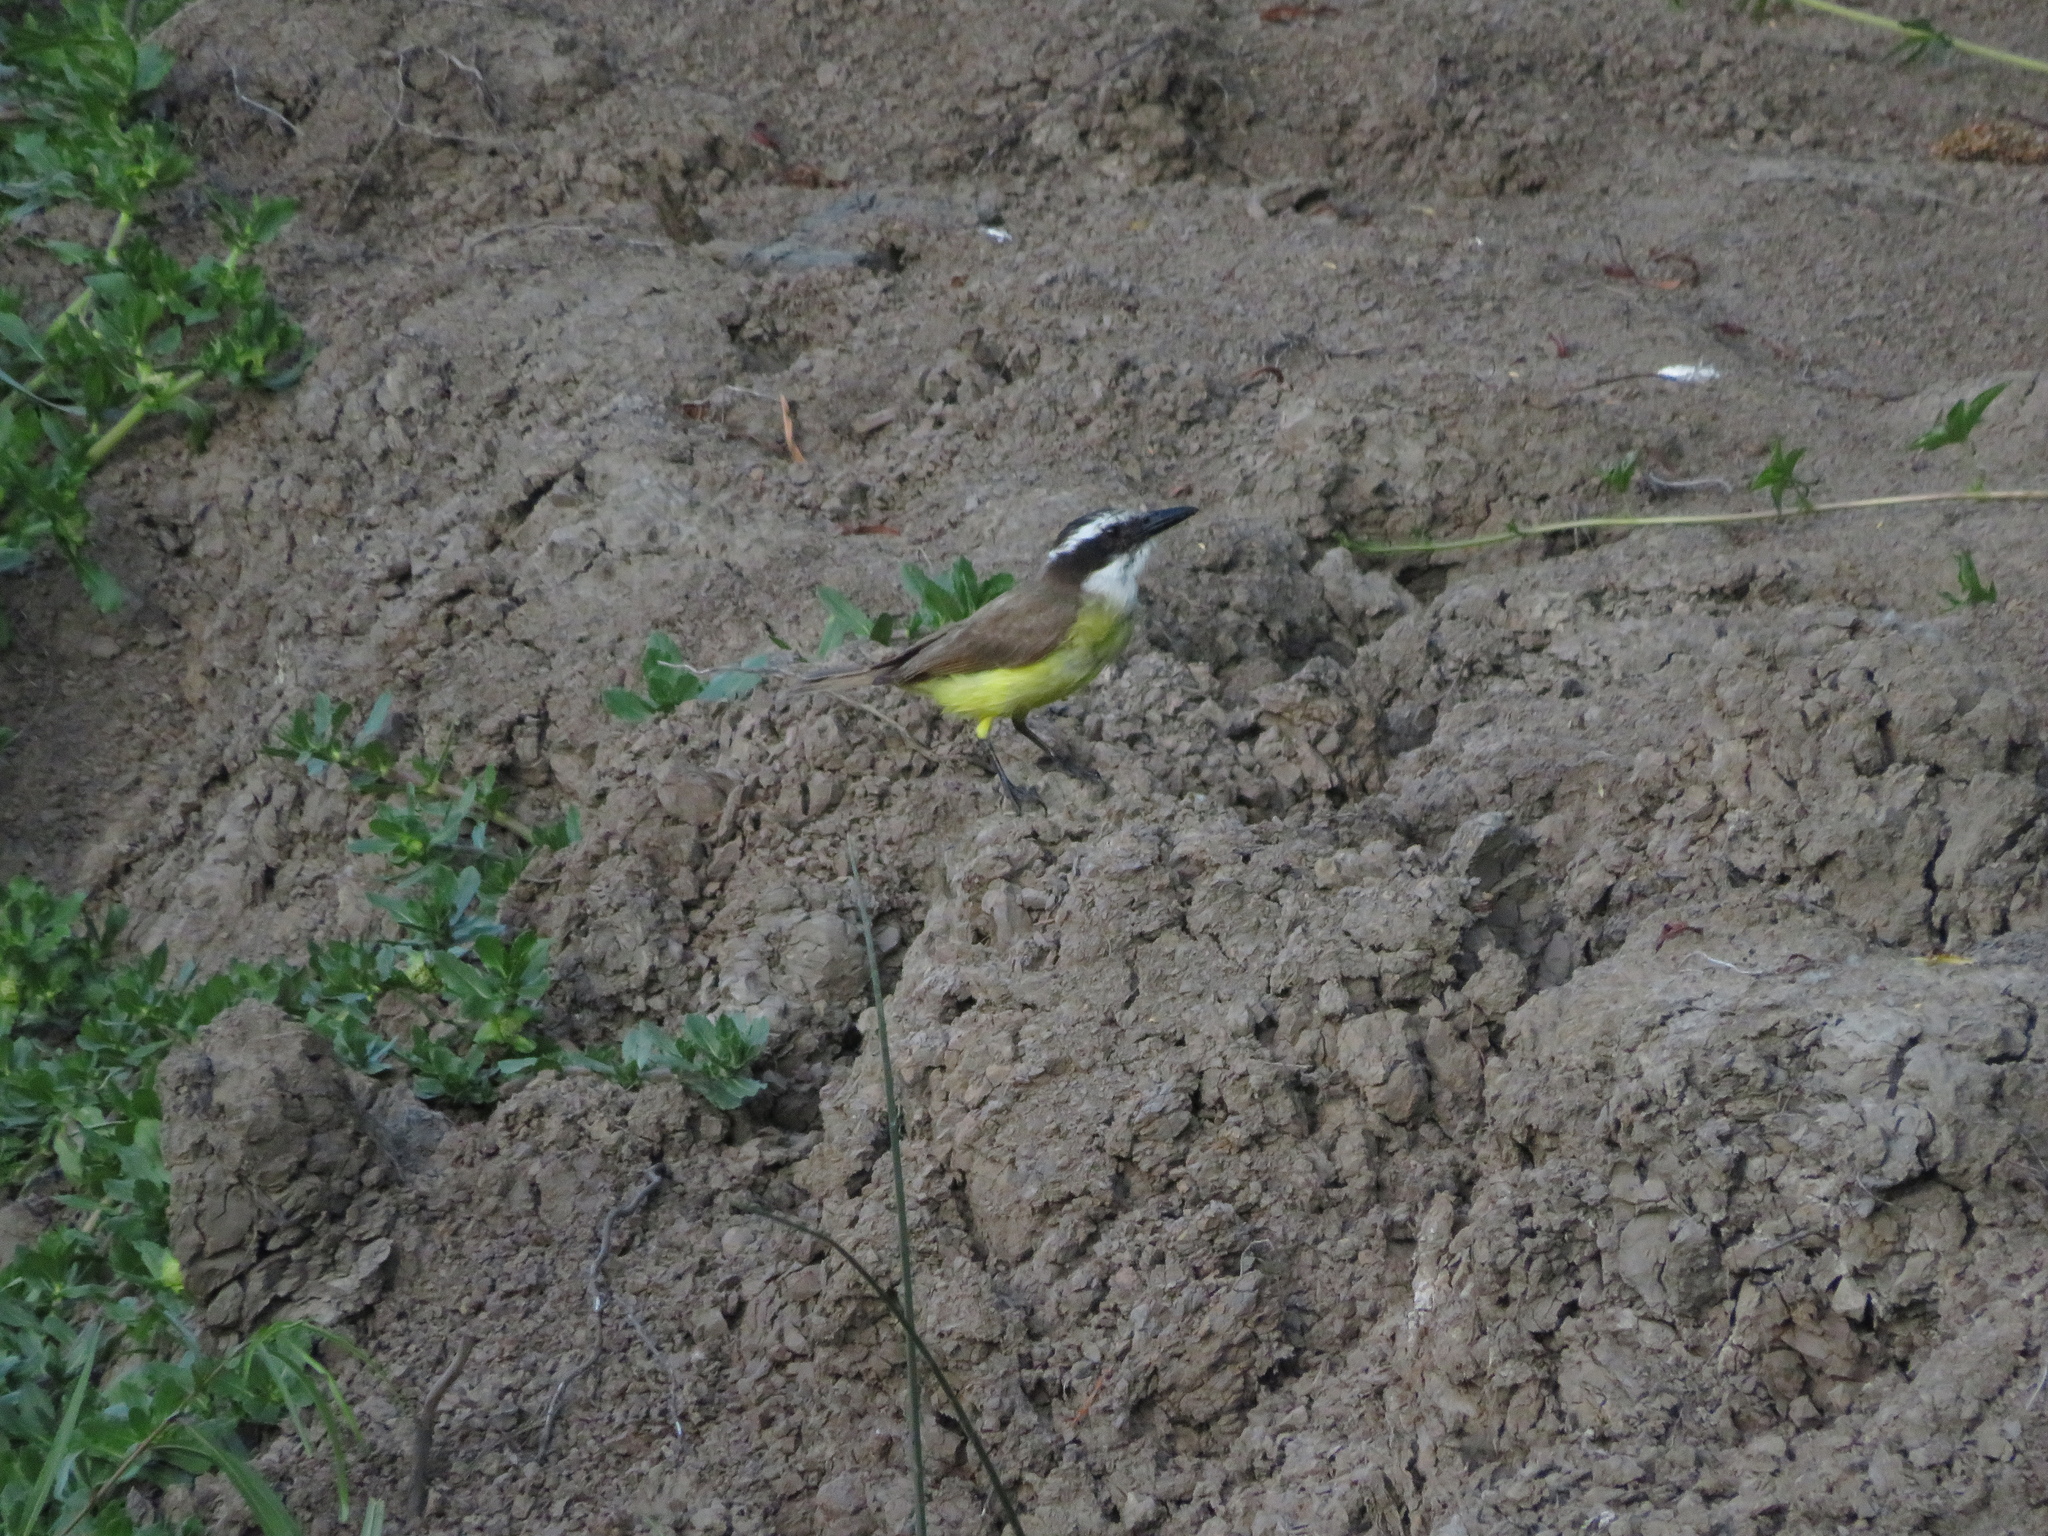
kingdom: Animalia
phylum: Chordata
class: Aves
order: Passeriformes
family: Tyrannidae
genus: Pitangus
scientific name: Pitangus sulphuratus
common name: Great kiskadee
